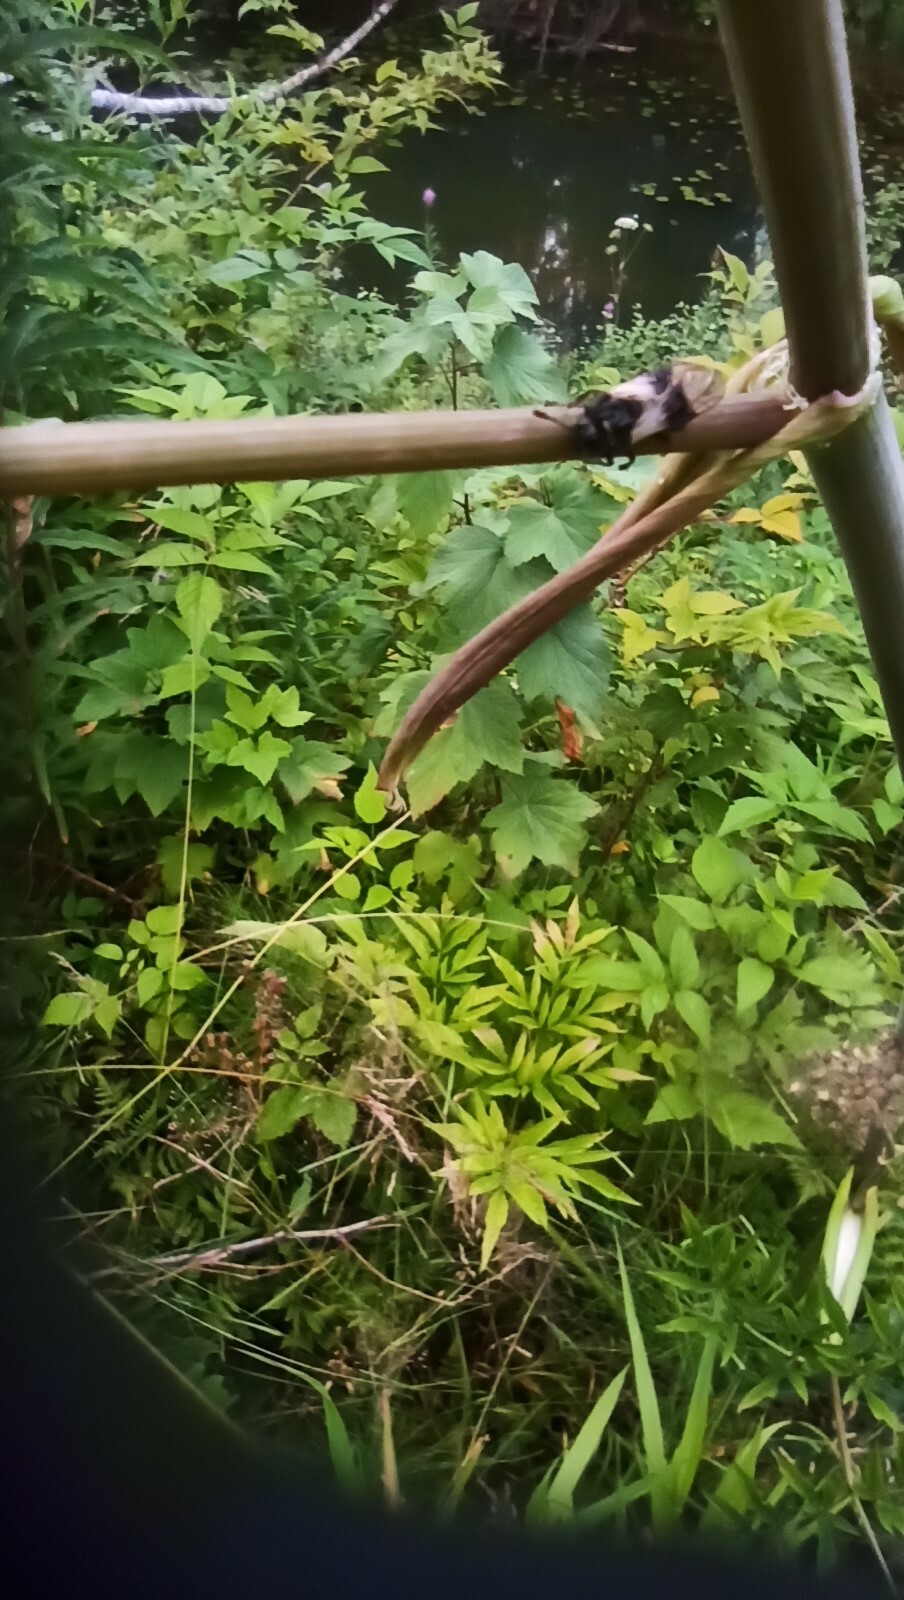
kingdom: Animalia
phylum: Arthropoda
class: Insecta
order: Hymenoptera
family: Cimbicidae
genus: Abia
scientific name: Abia fasciata
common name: Banded honeysuckle sawfly
